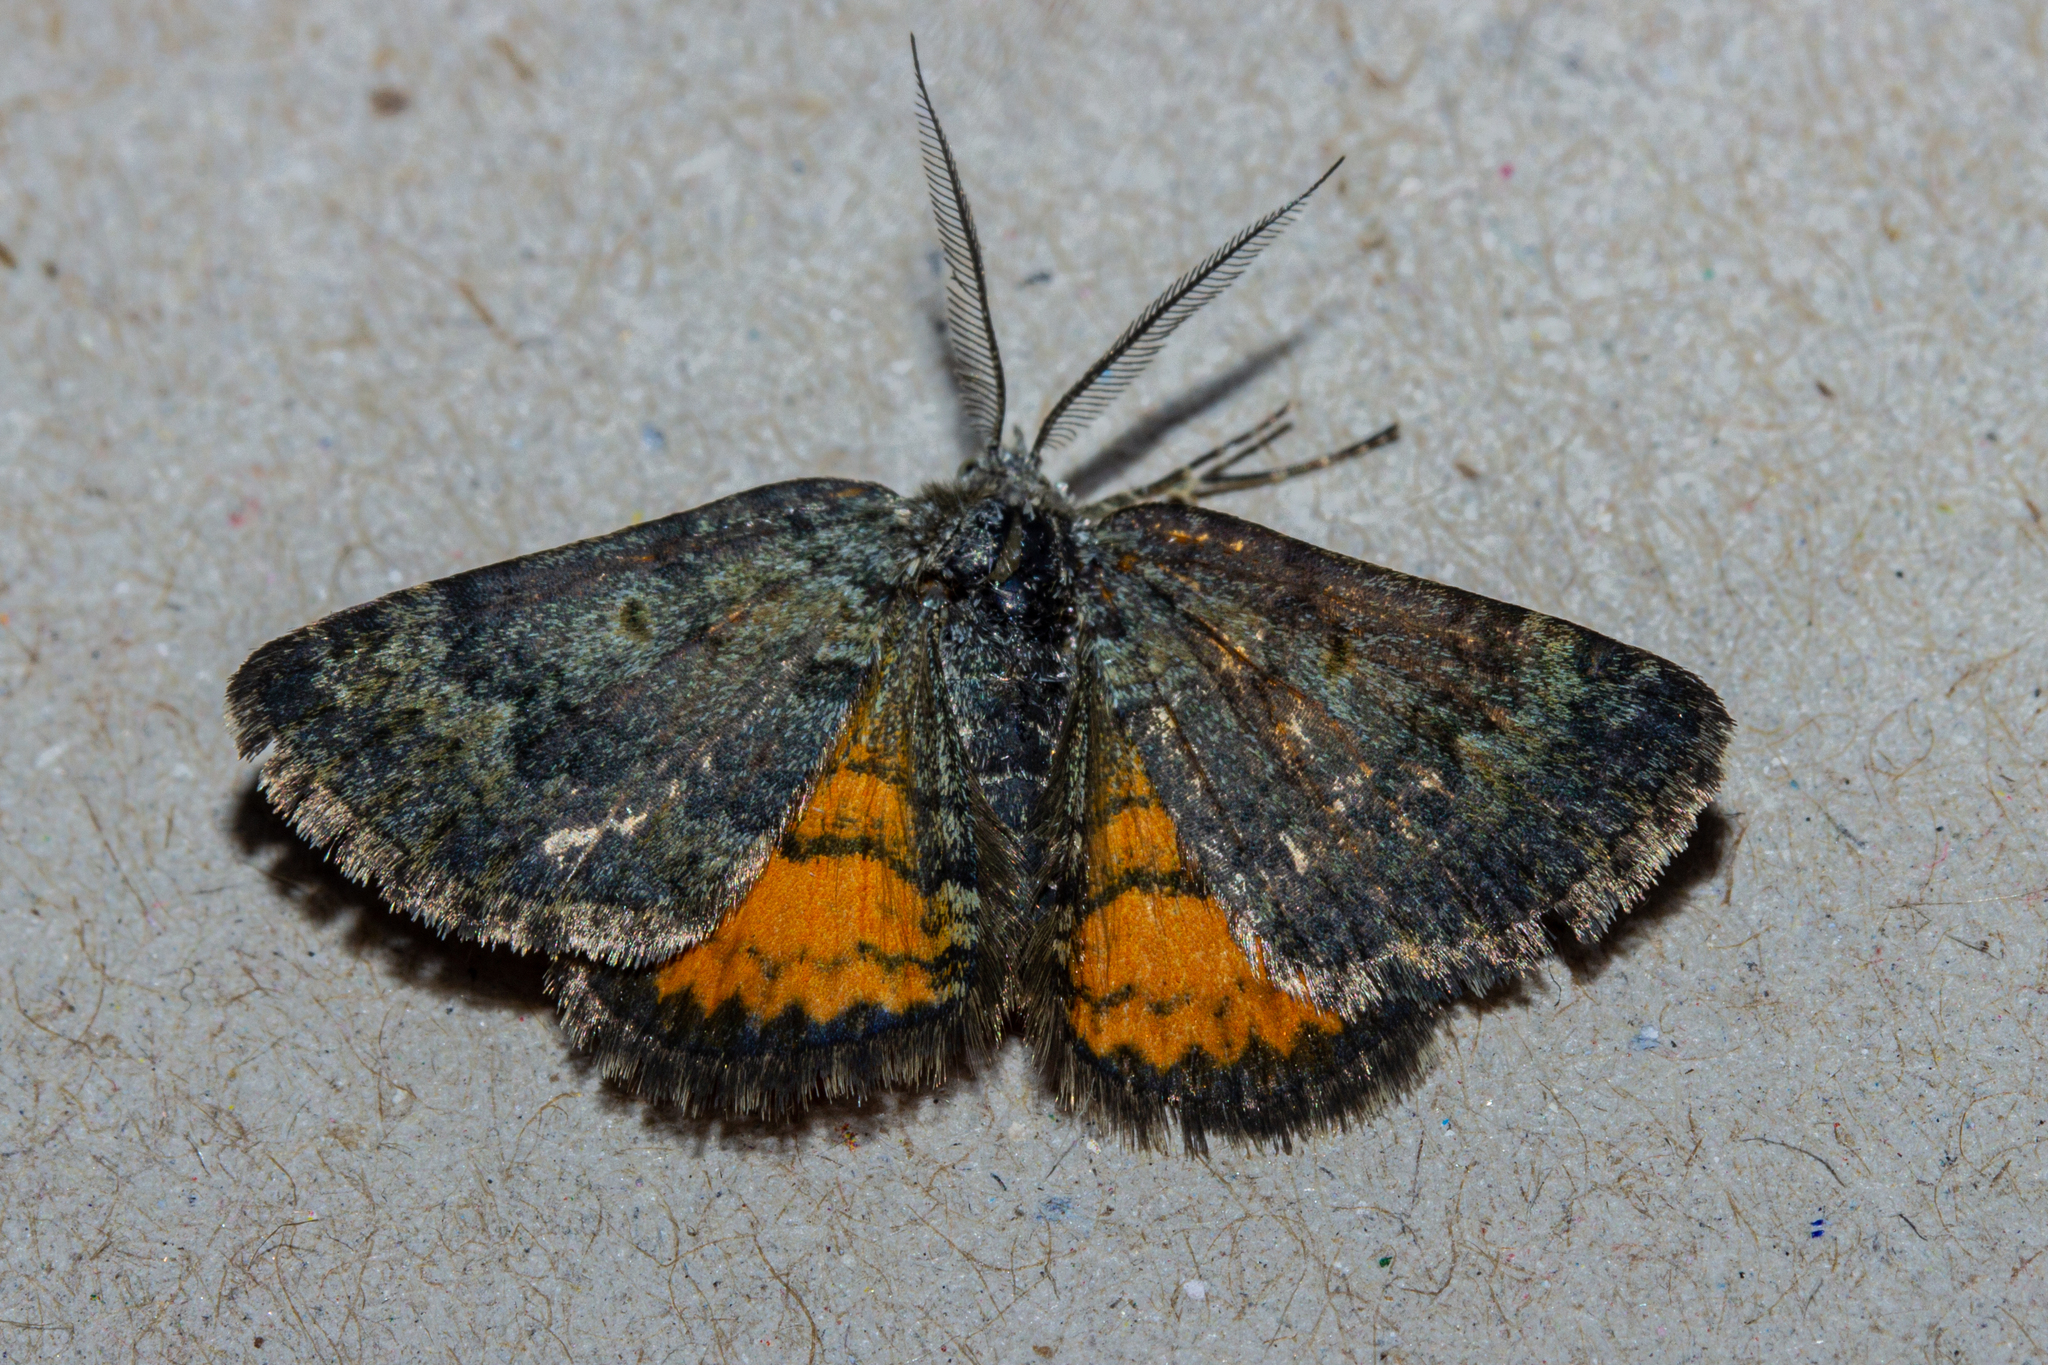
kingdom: Animalia
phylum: Arthropoda
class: Insecta
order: Lepidoptera
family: Geometridae
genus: Paranotoreas
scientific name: Paranotoreas brephosata
